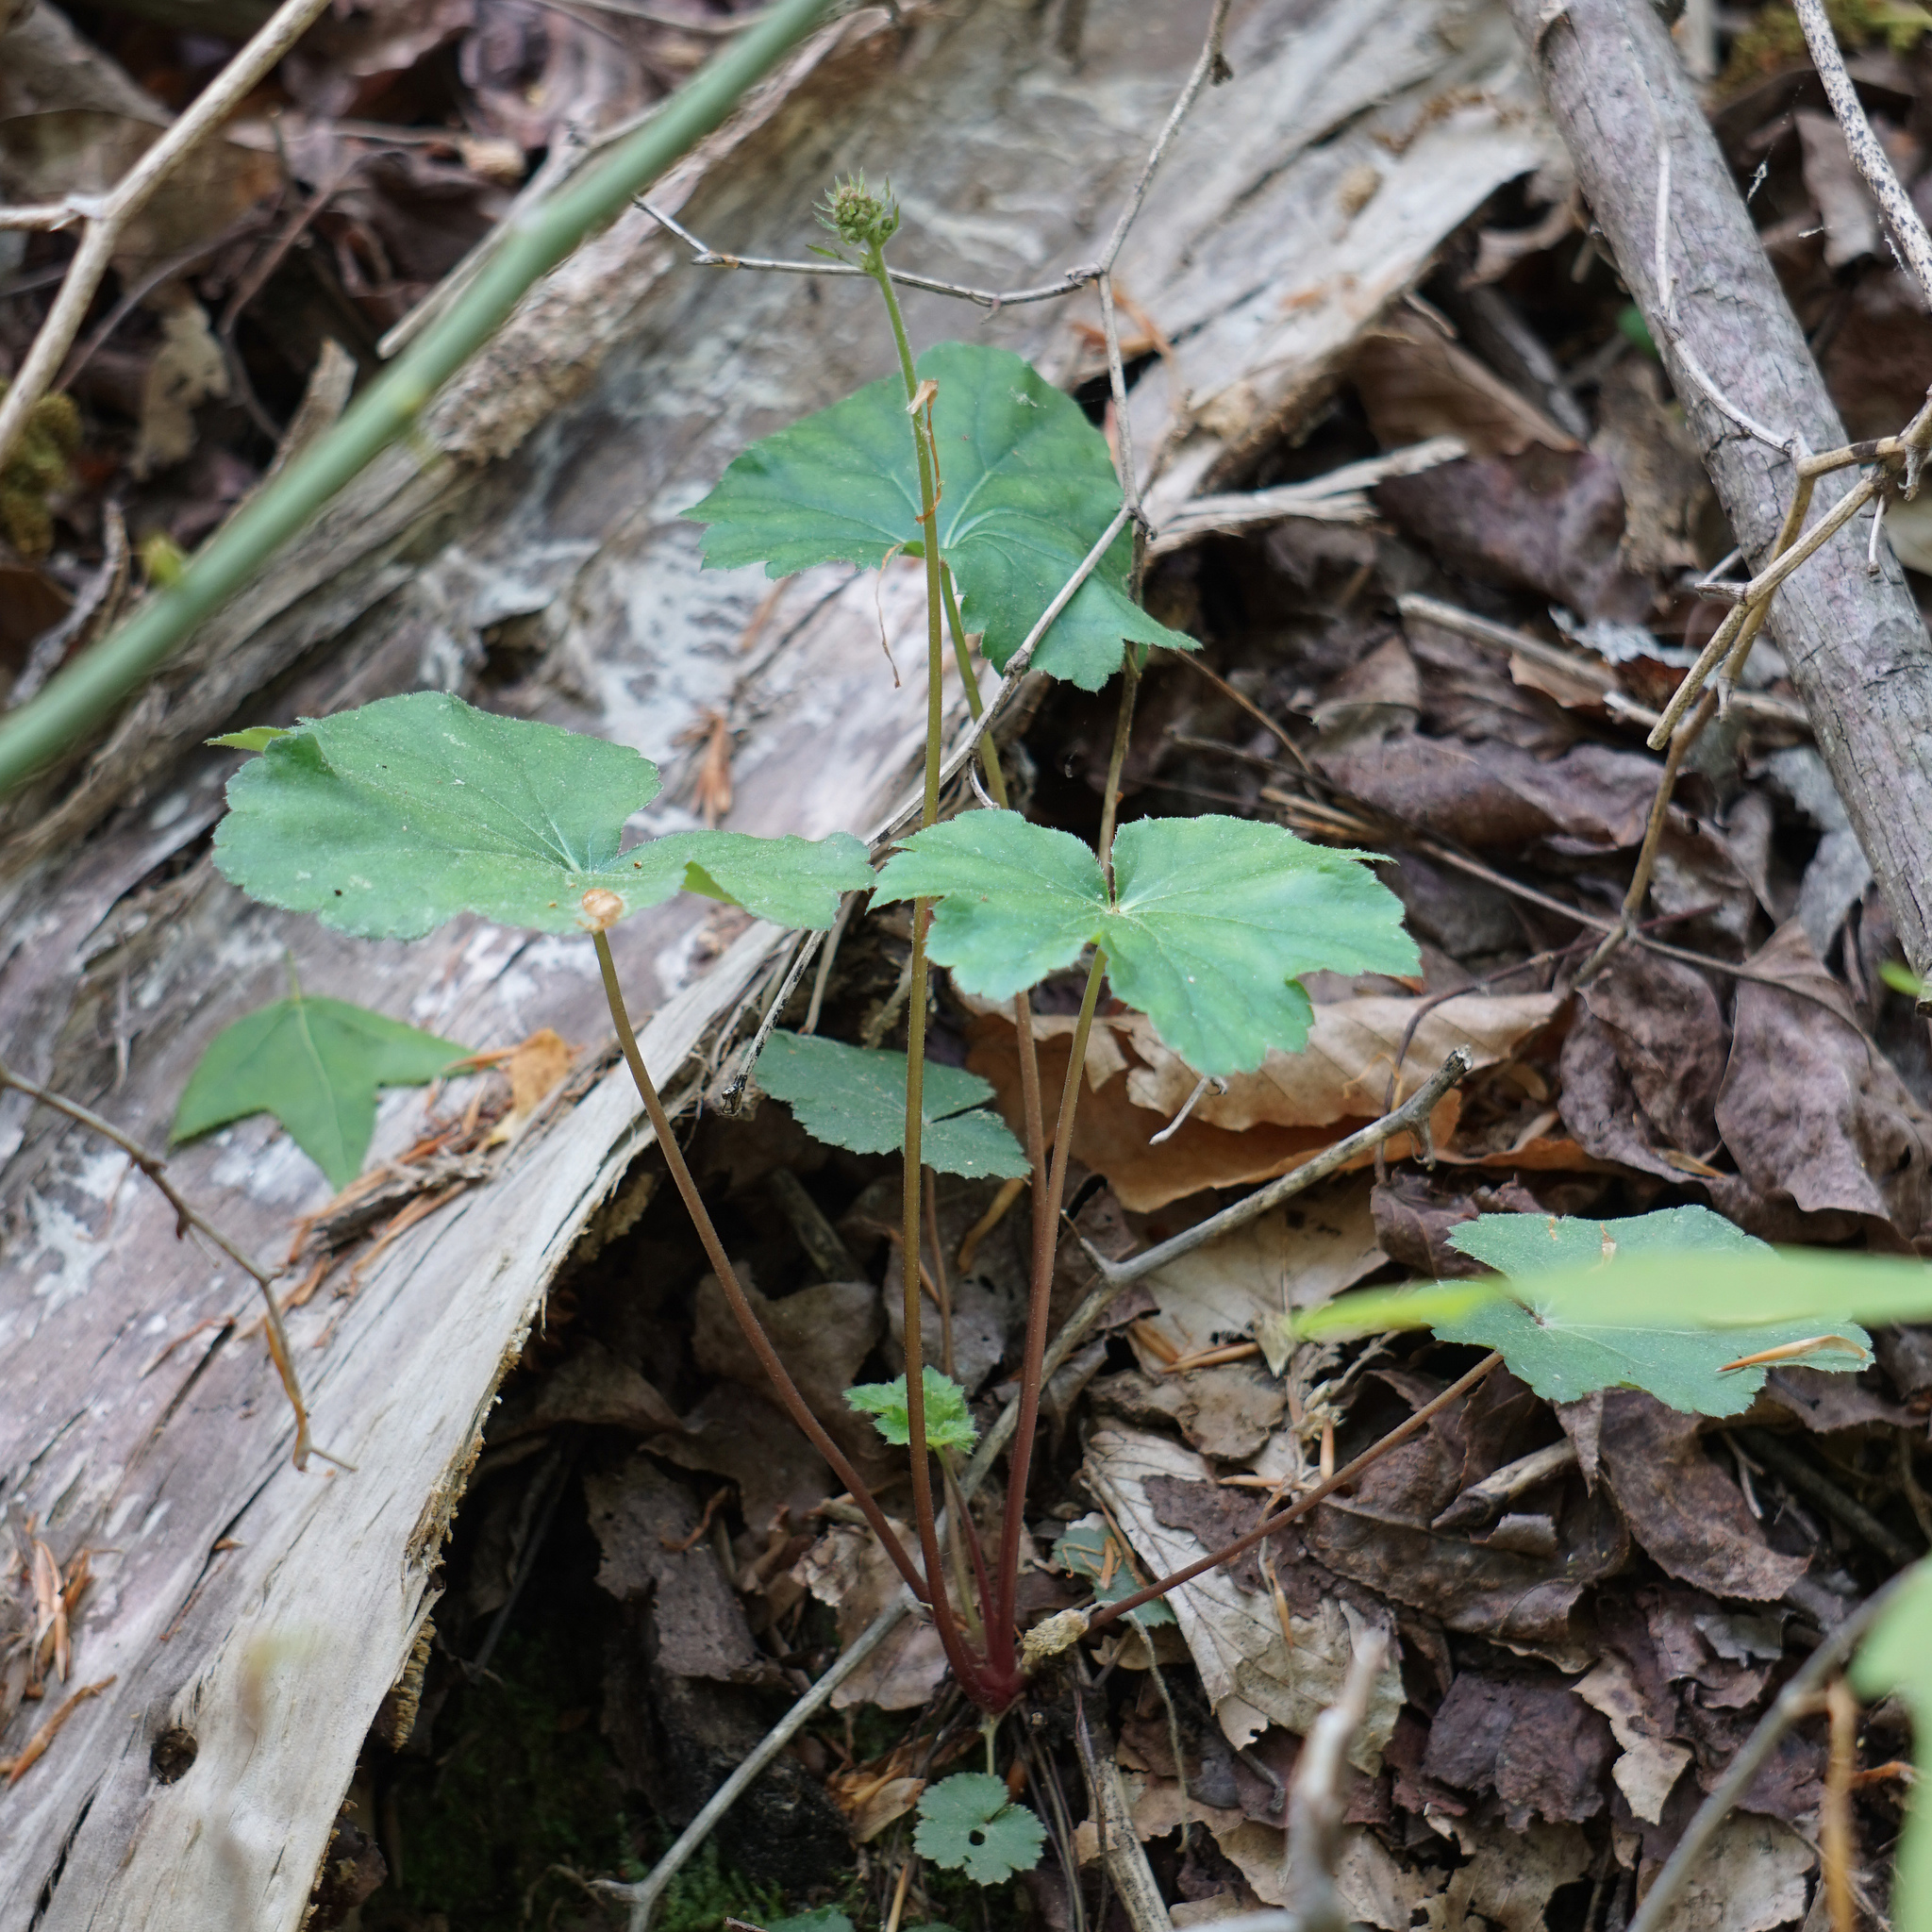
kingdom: Plantae
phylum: Tracheophyta
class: Magnoliopsida
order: Saxifragales
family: Saxifragaceae
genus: Heuchera
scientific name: Heuchera americana
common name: Alumroot
